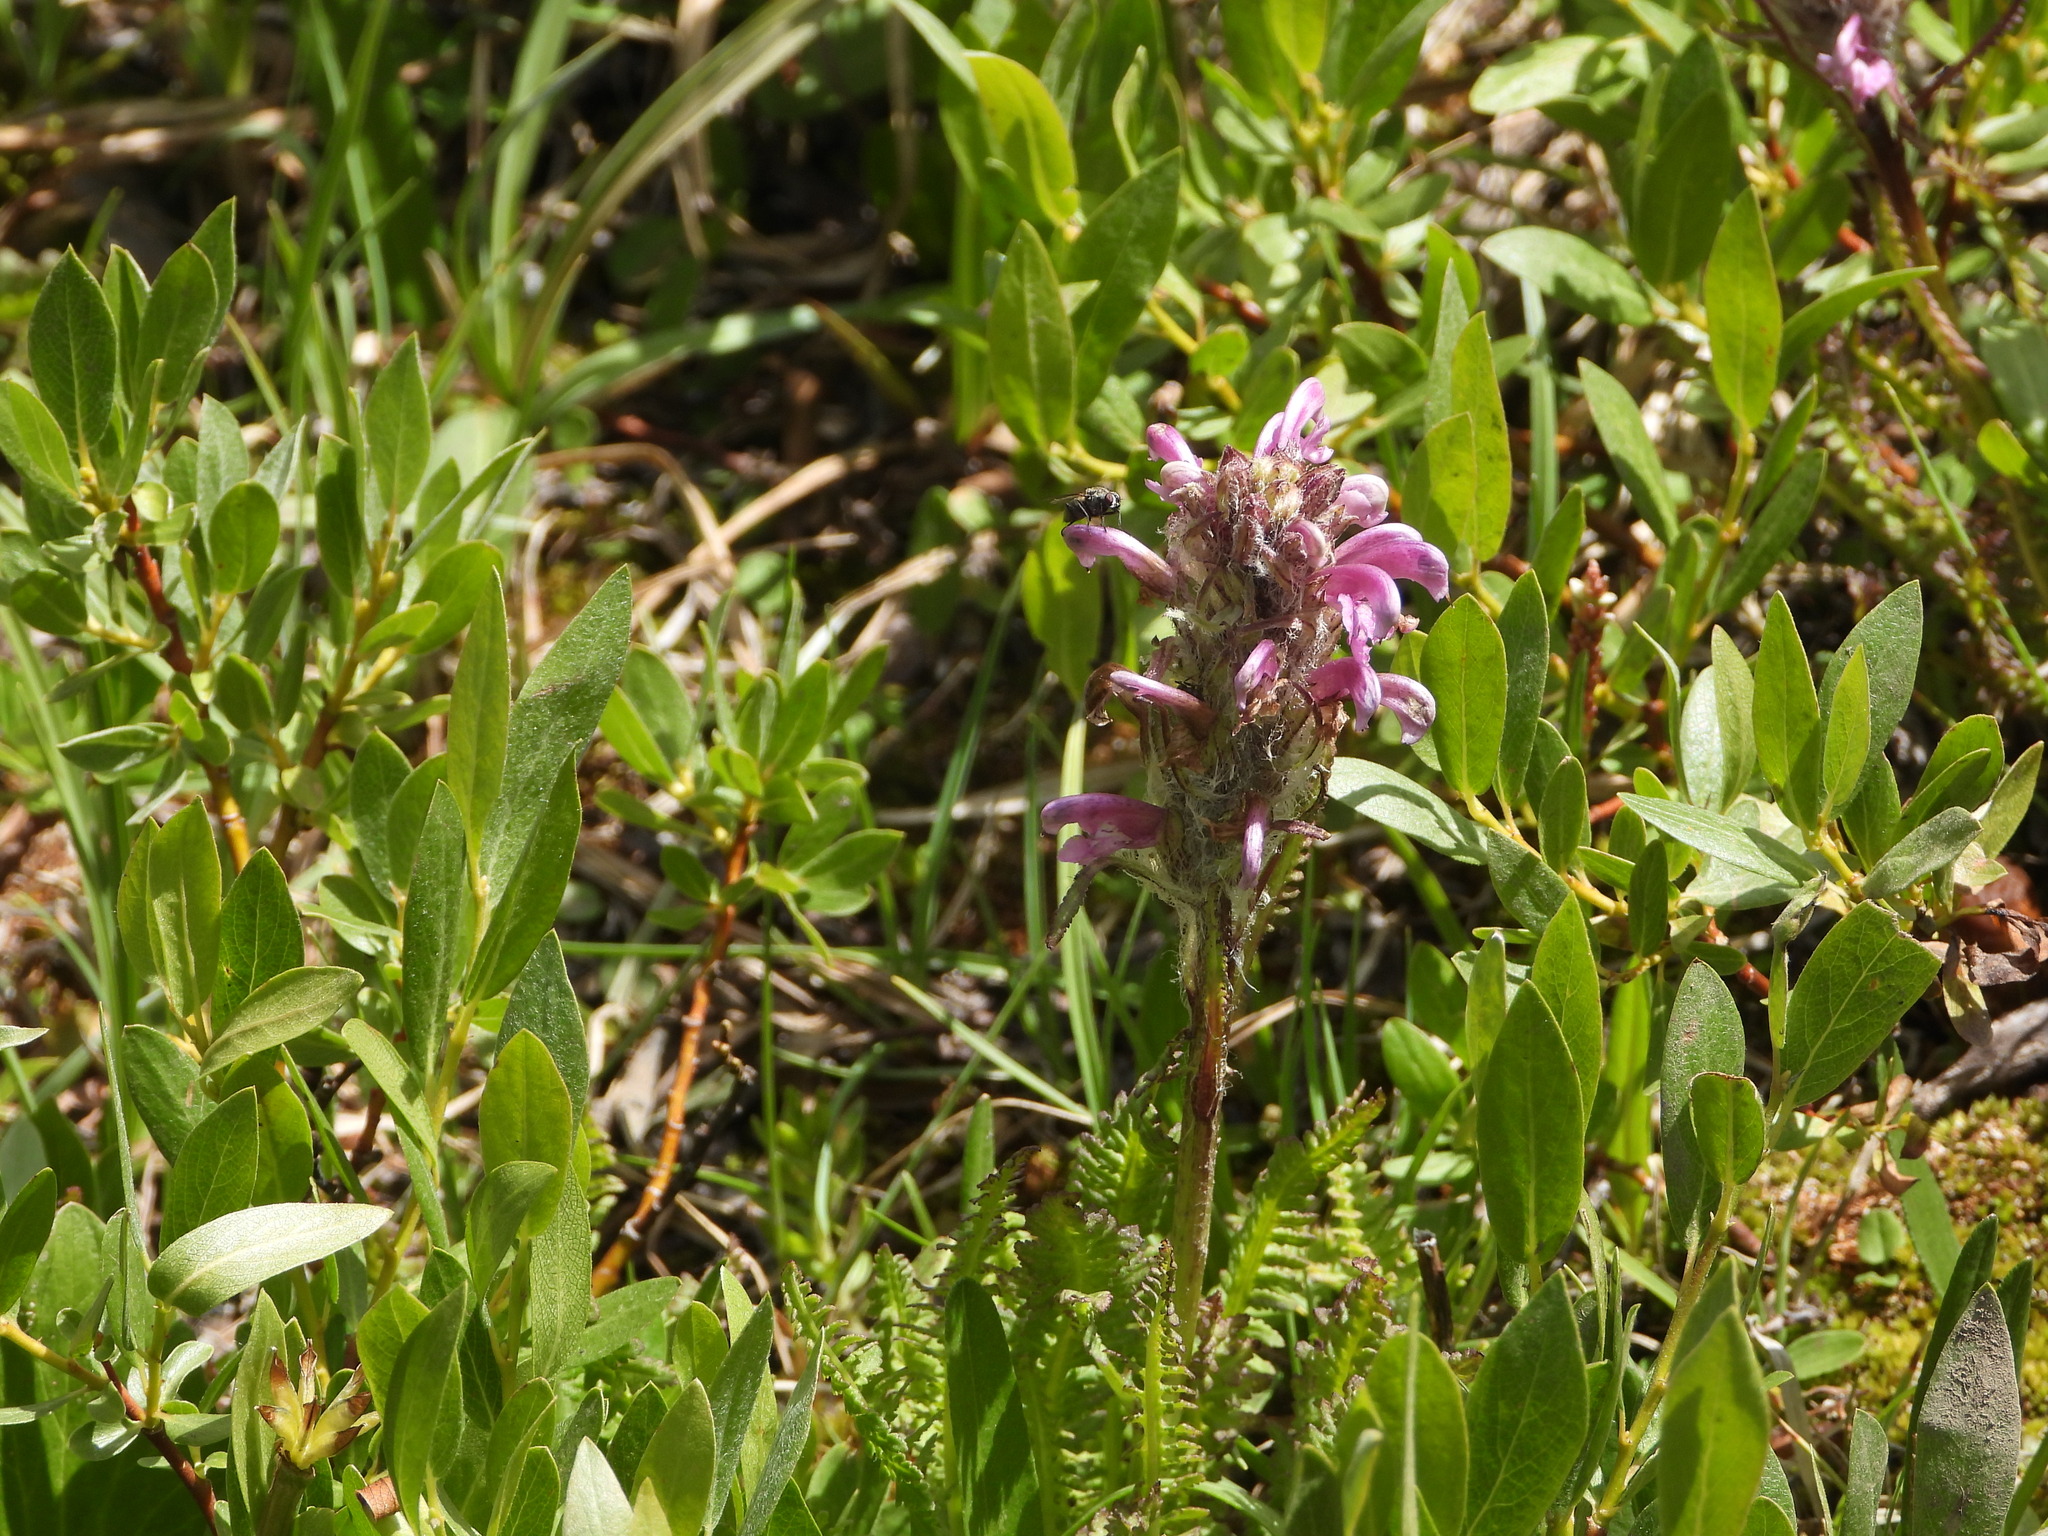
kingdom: Plantae
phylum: Tracheophyta
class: Magnoliopsida
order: Lamiales
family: Orobanchaceae
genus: Pedicularis
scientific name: Pedicularis sudetica
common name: Sudeten lousewort
